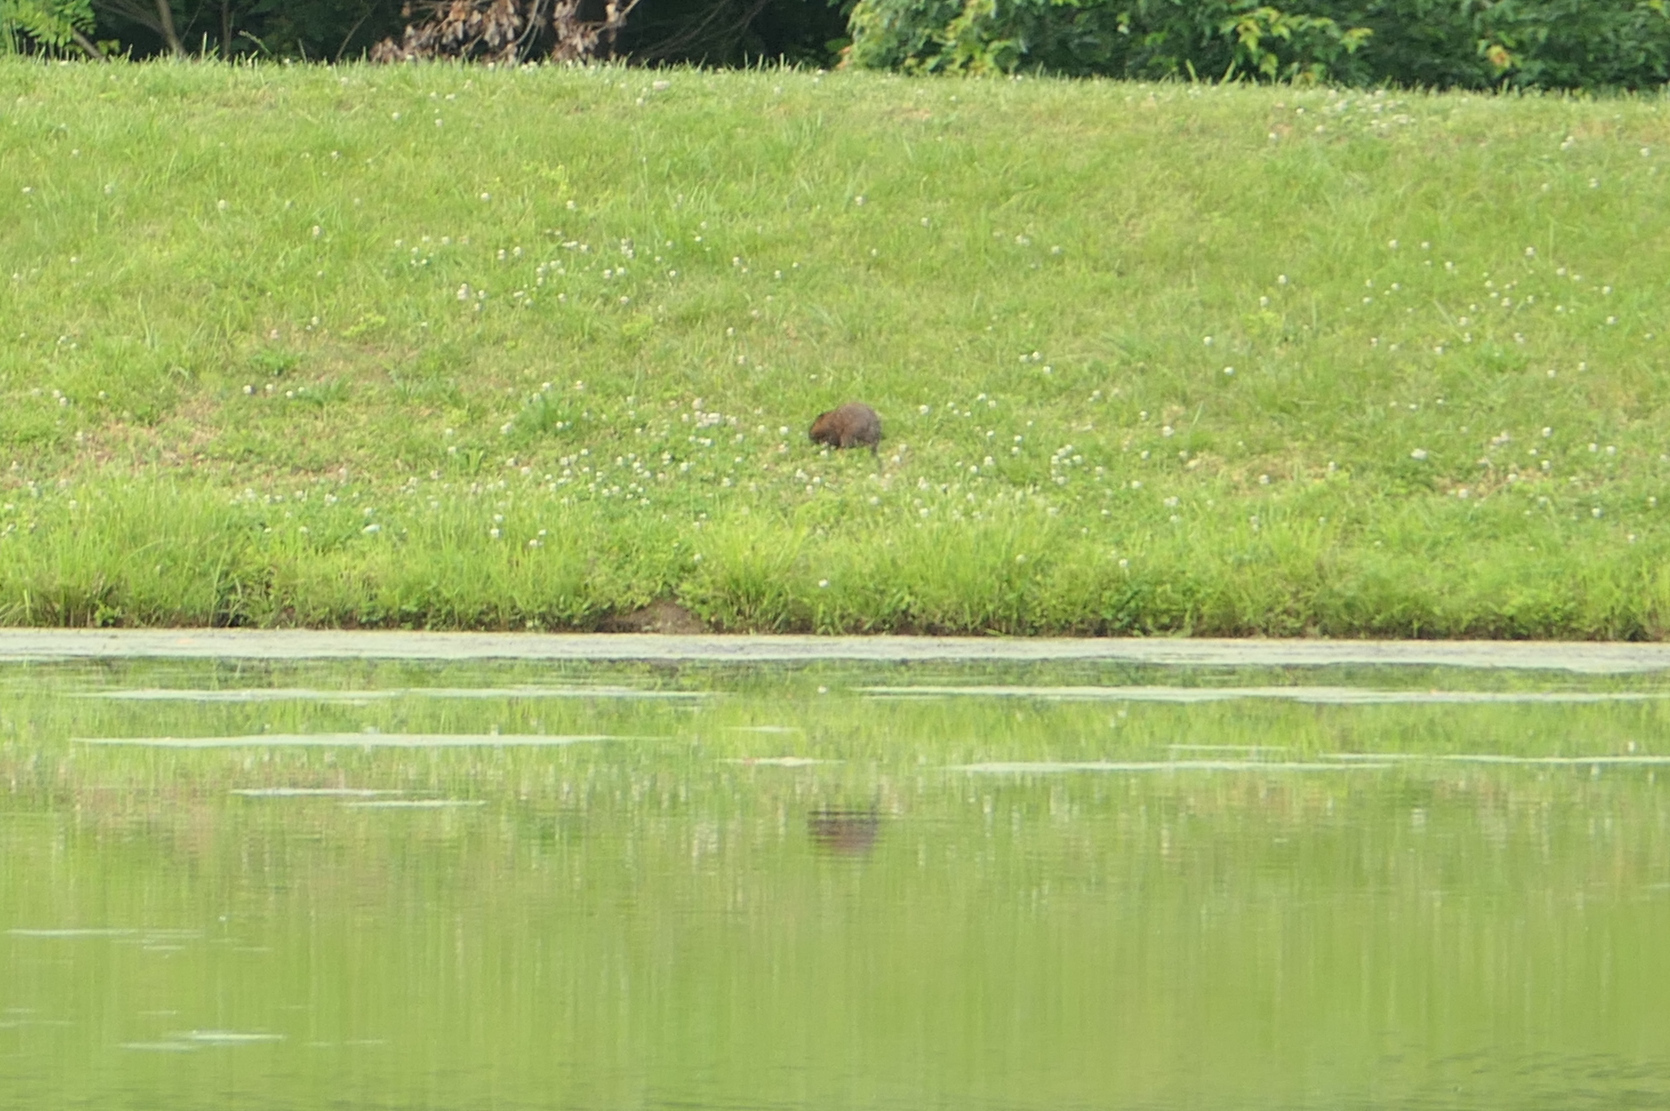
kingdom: Animalia
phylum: Chordata
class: Mammalia
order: Rodentia
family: Cricetidae
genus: Ondatra
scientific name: Ondatra zibethicus
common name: Muskrat
